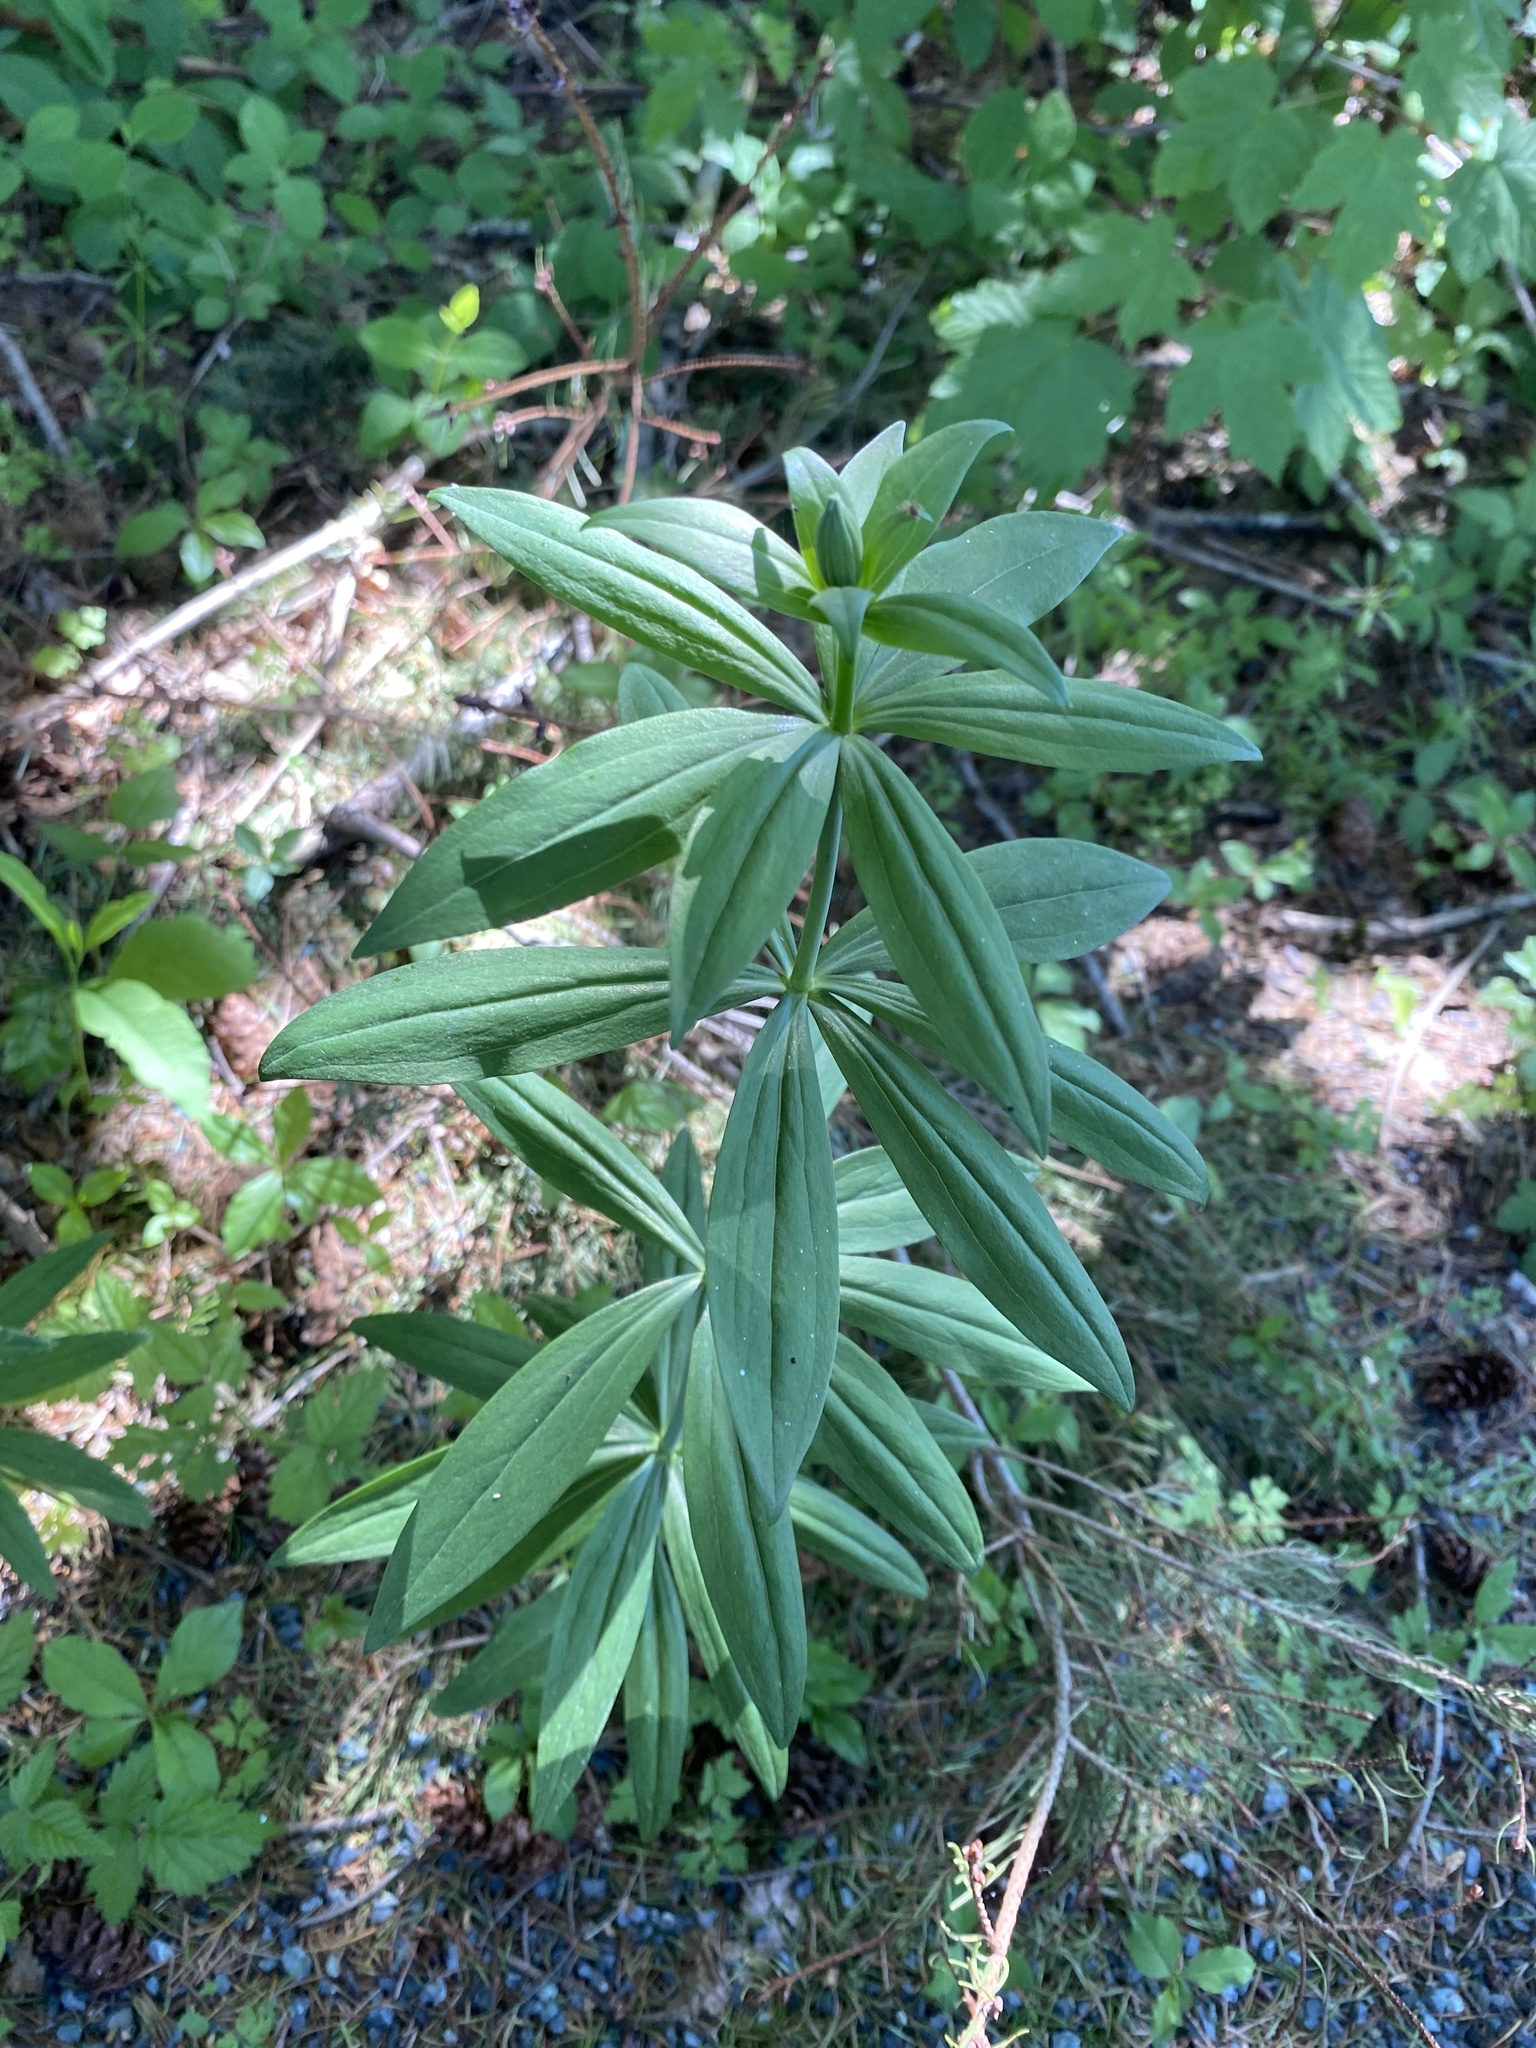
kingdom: Plantae
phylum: Tracheophyta
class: Liliopsida
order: Liliales
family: Liliaceae
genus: Lilium
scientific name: Lilium columbianum
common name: Columbia lily
